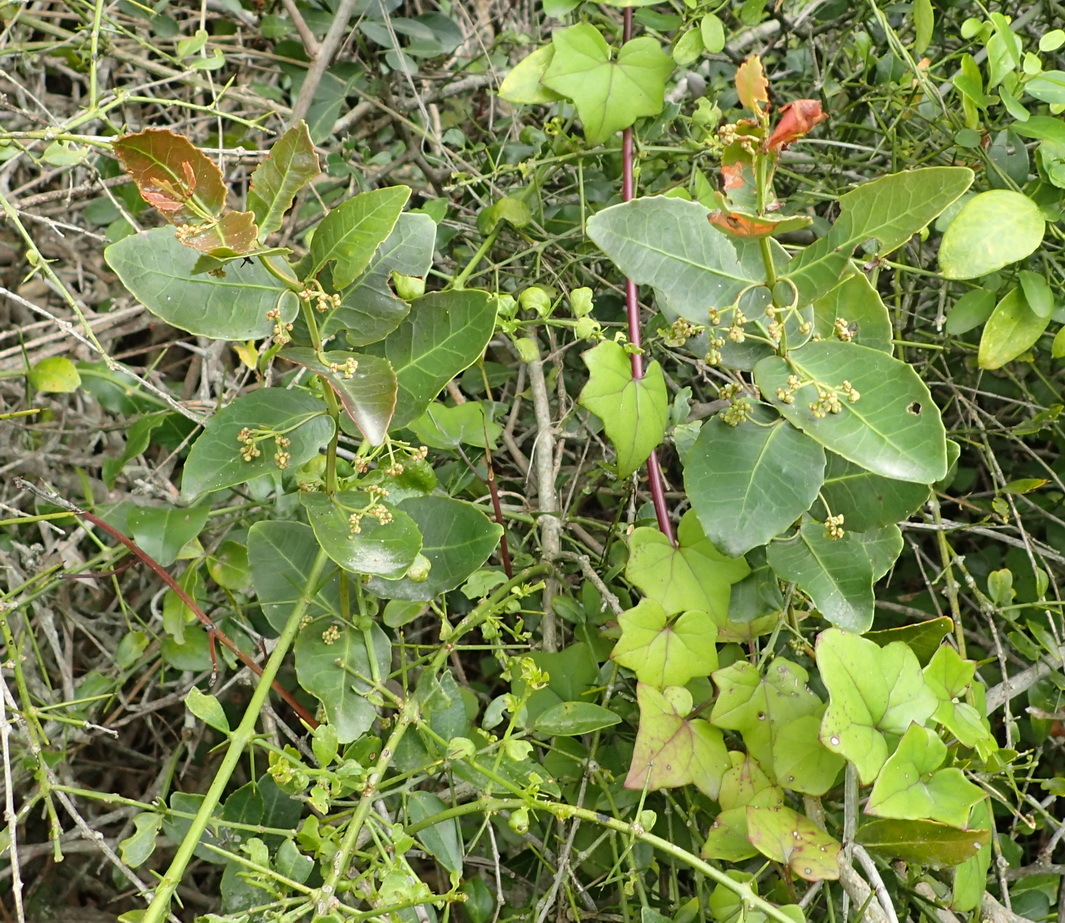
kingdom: Plantae
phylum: Tracheophyta
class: Magnoliopsida
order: Celastrales
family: Celastraceae
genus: Lauridia
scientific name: Lauridia tetragona
